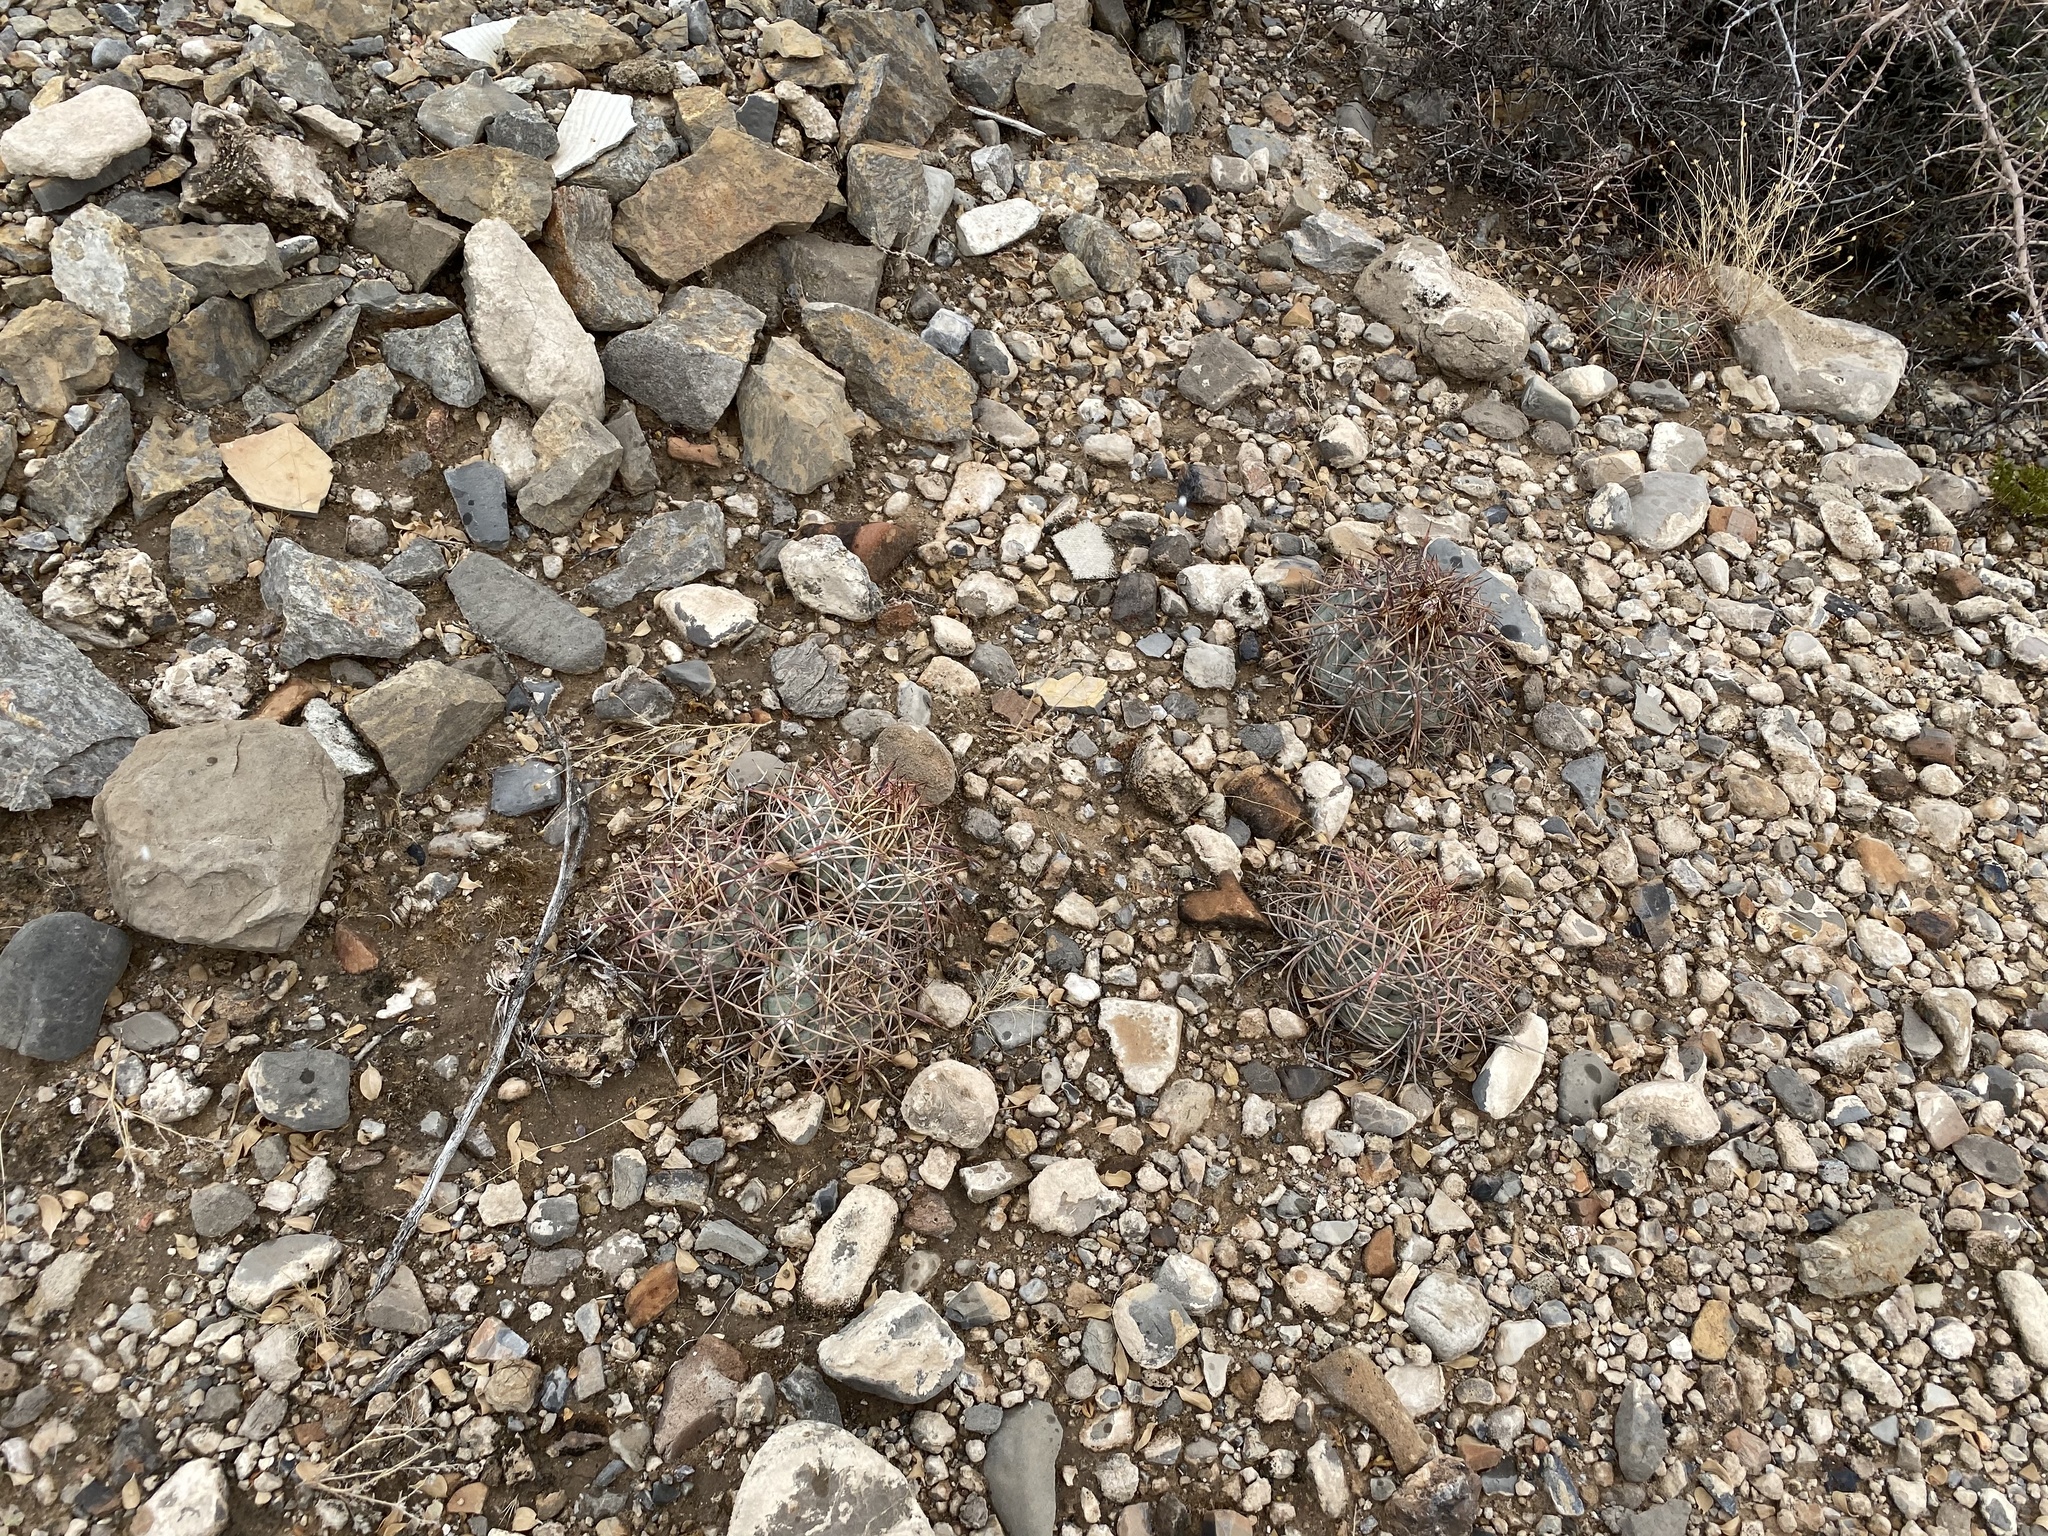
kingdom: Plantae
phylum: Tracheophyta
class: Magnoliopsida
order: Caryophyllales
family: Cactaceae
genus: Echinocactus
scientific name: Echinocactus horizonthalonius
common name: Devilshead
